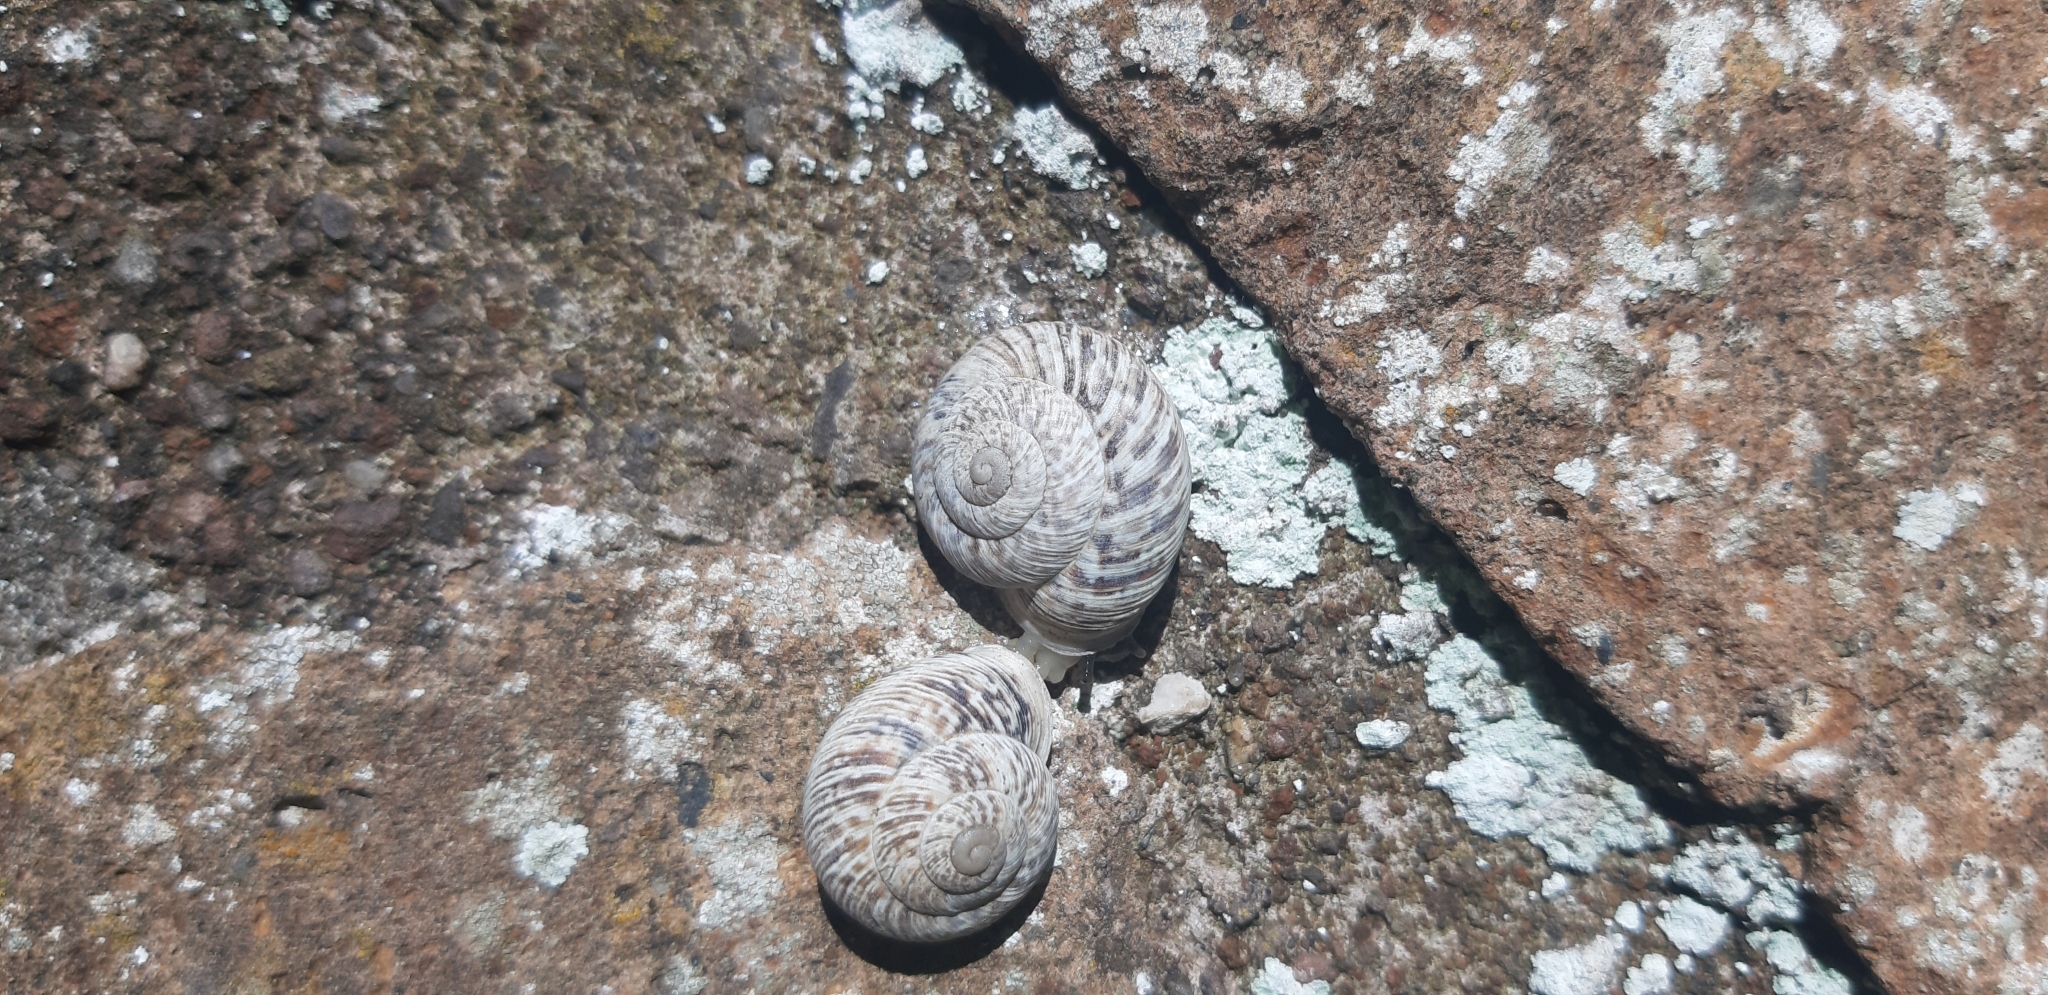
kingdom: Animalia
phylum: Mollusca
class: Gastropoda
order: Stylommatophora
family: Helicidae
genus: Marmorana
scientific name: Marmorana muralis
